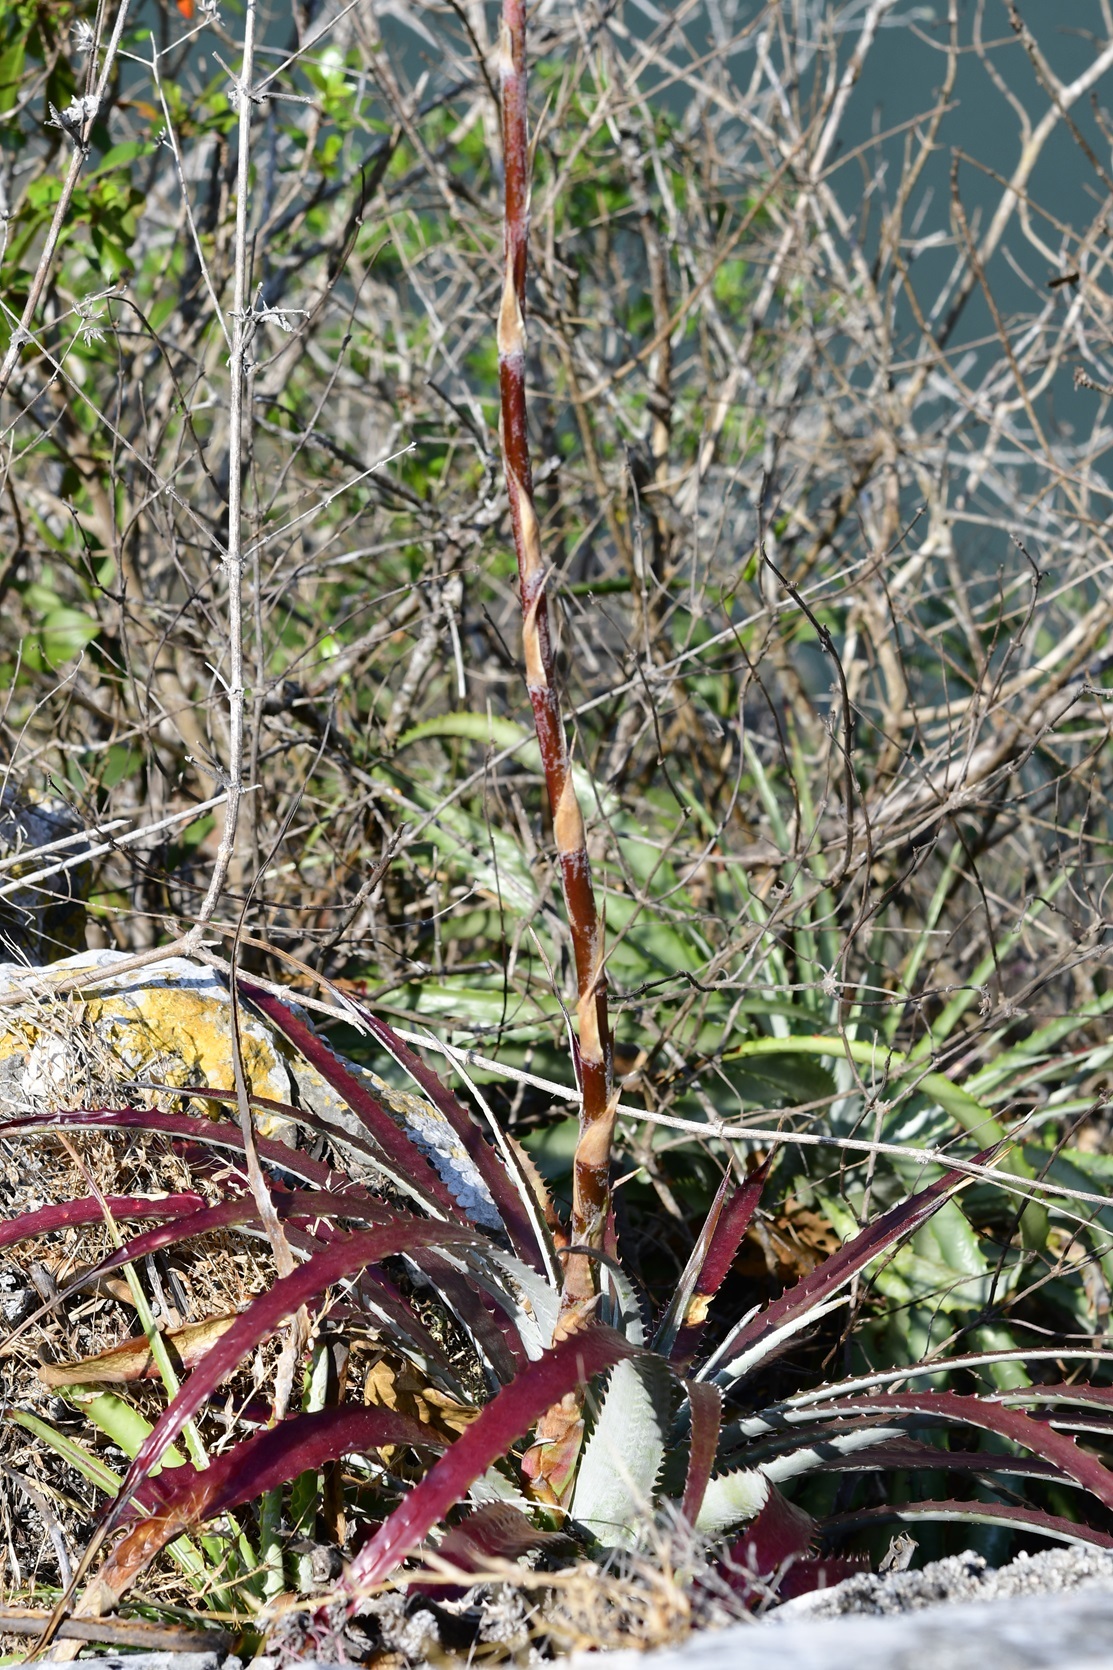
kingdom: Plantae
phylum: Tracheophyta
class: Liliopsida
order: Poales
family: Bromeliaceae
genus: Hechtia
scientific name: Hechtia glomerata
